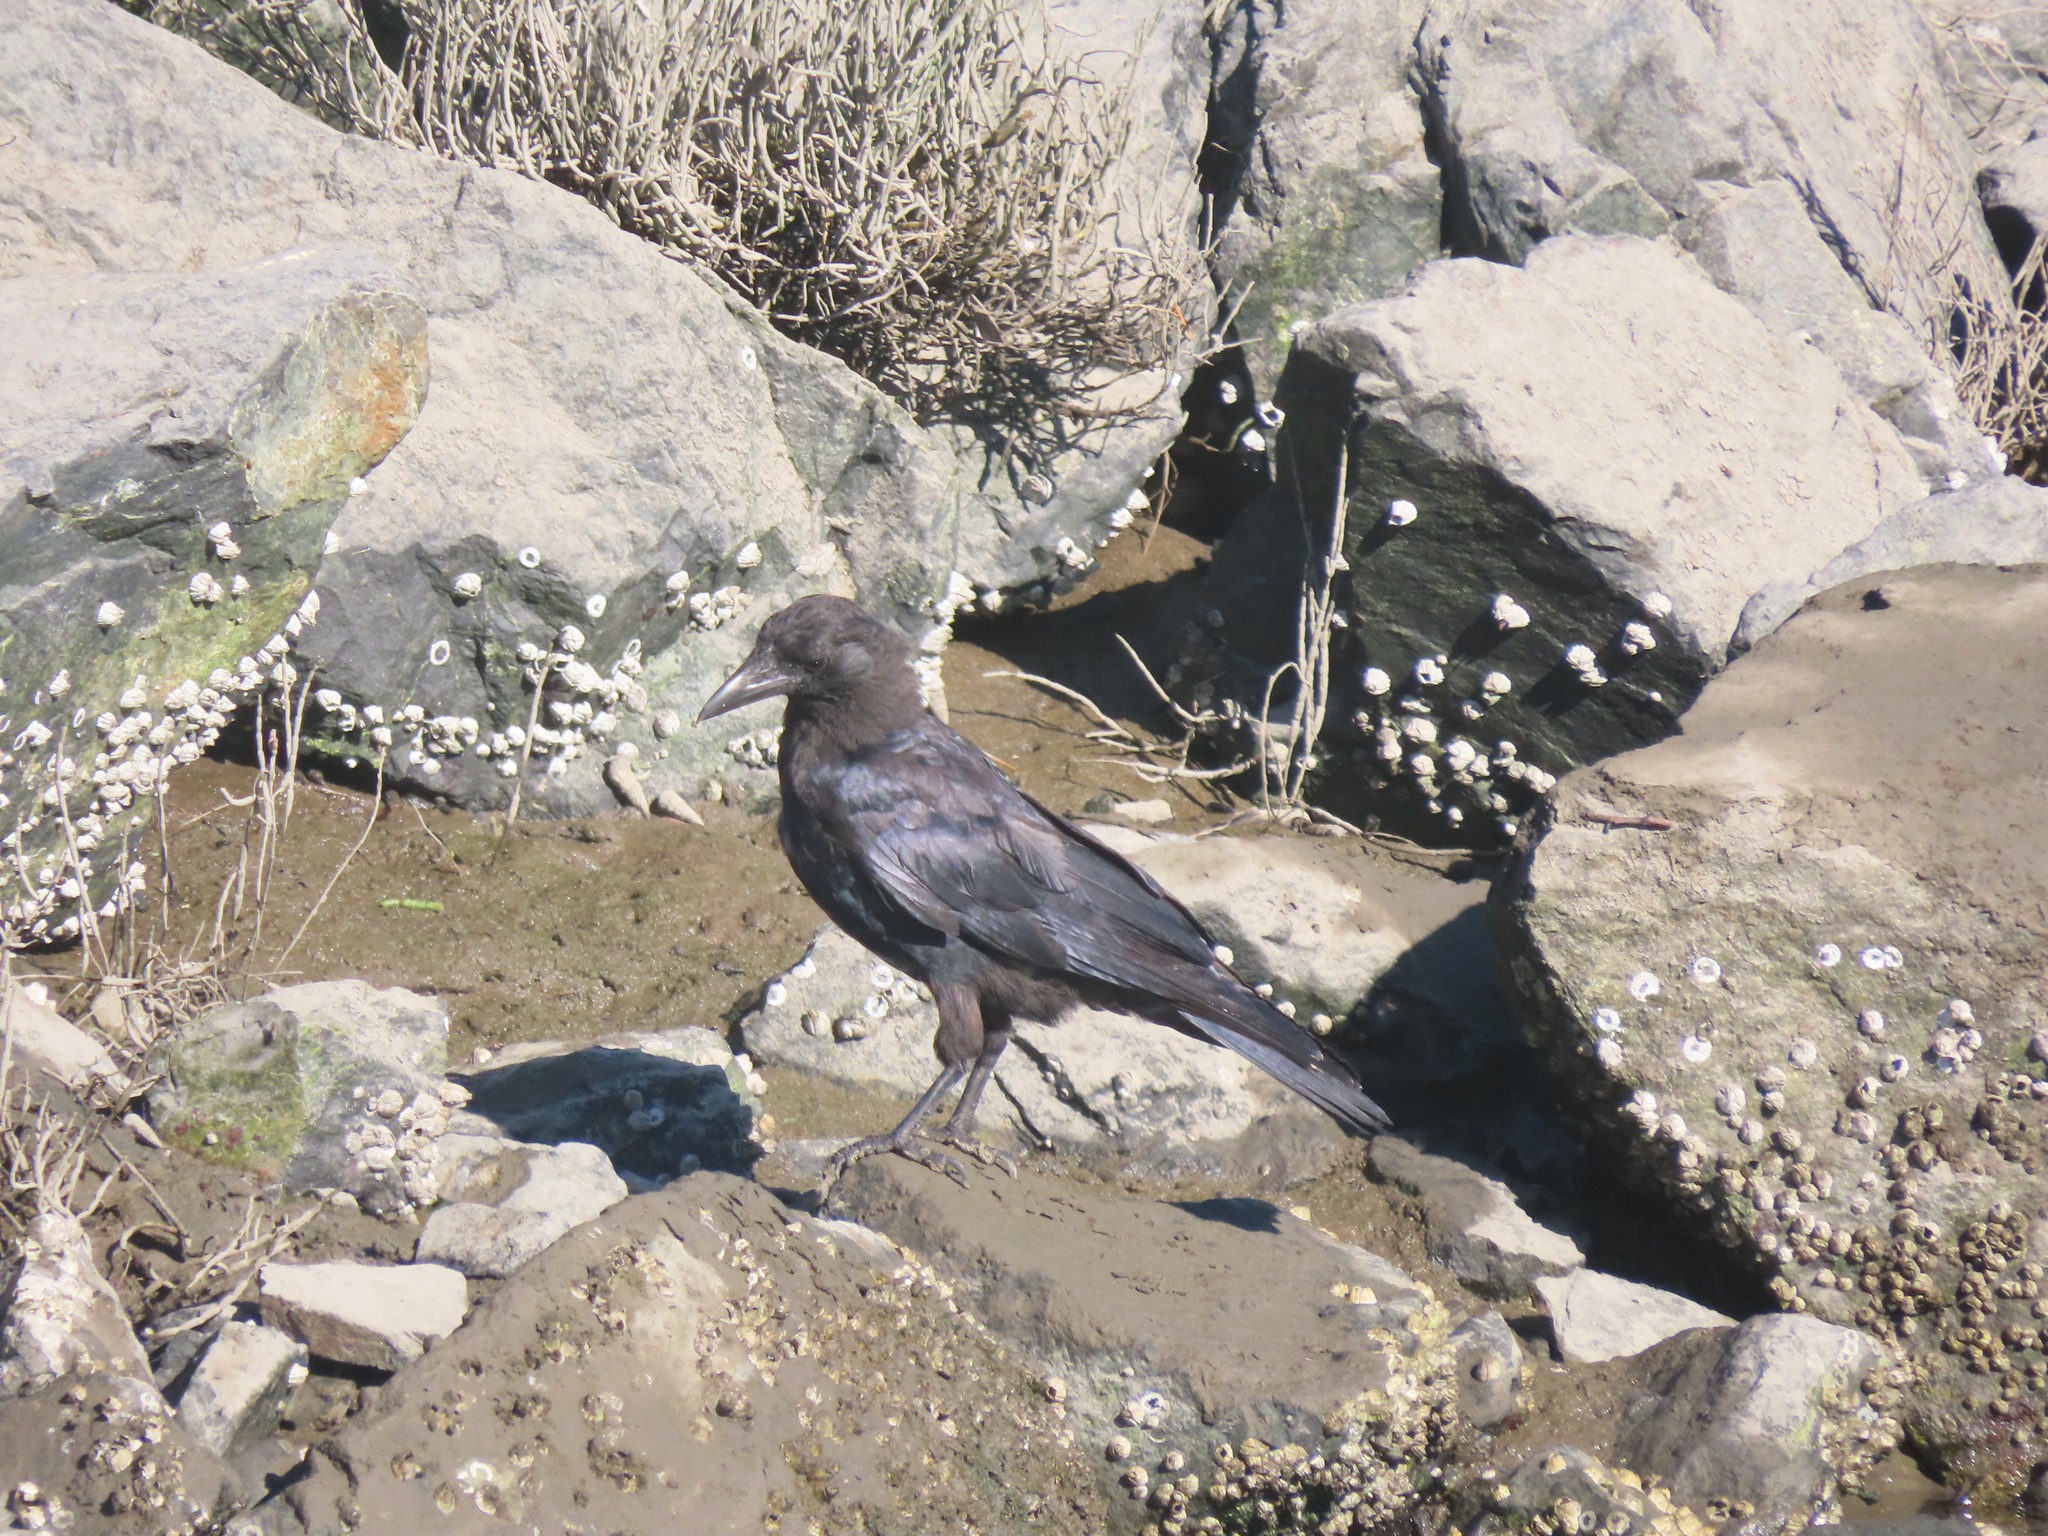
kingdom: Animalia
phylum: Chordata
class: Aves
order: Passeriformes
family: Corvidae
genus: Corvus
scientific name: Corvus brachyrhynchos
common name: American crow
